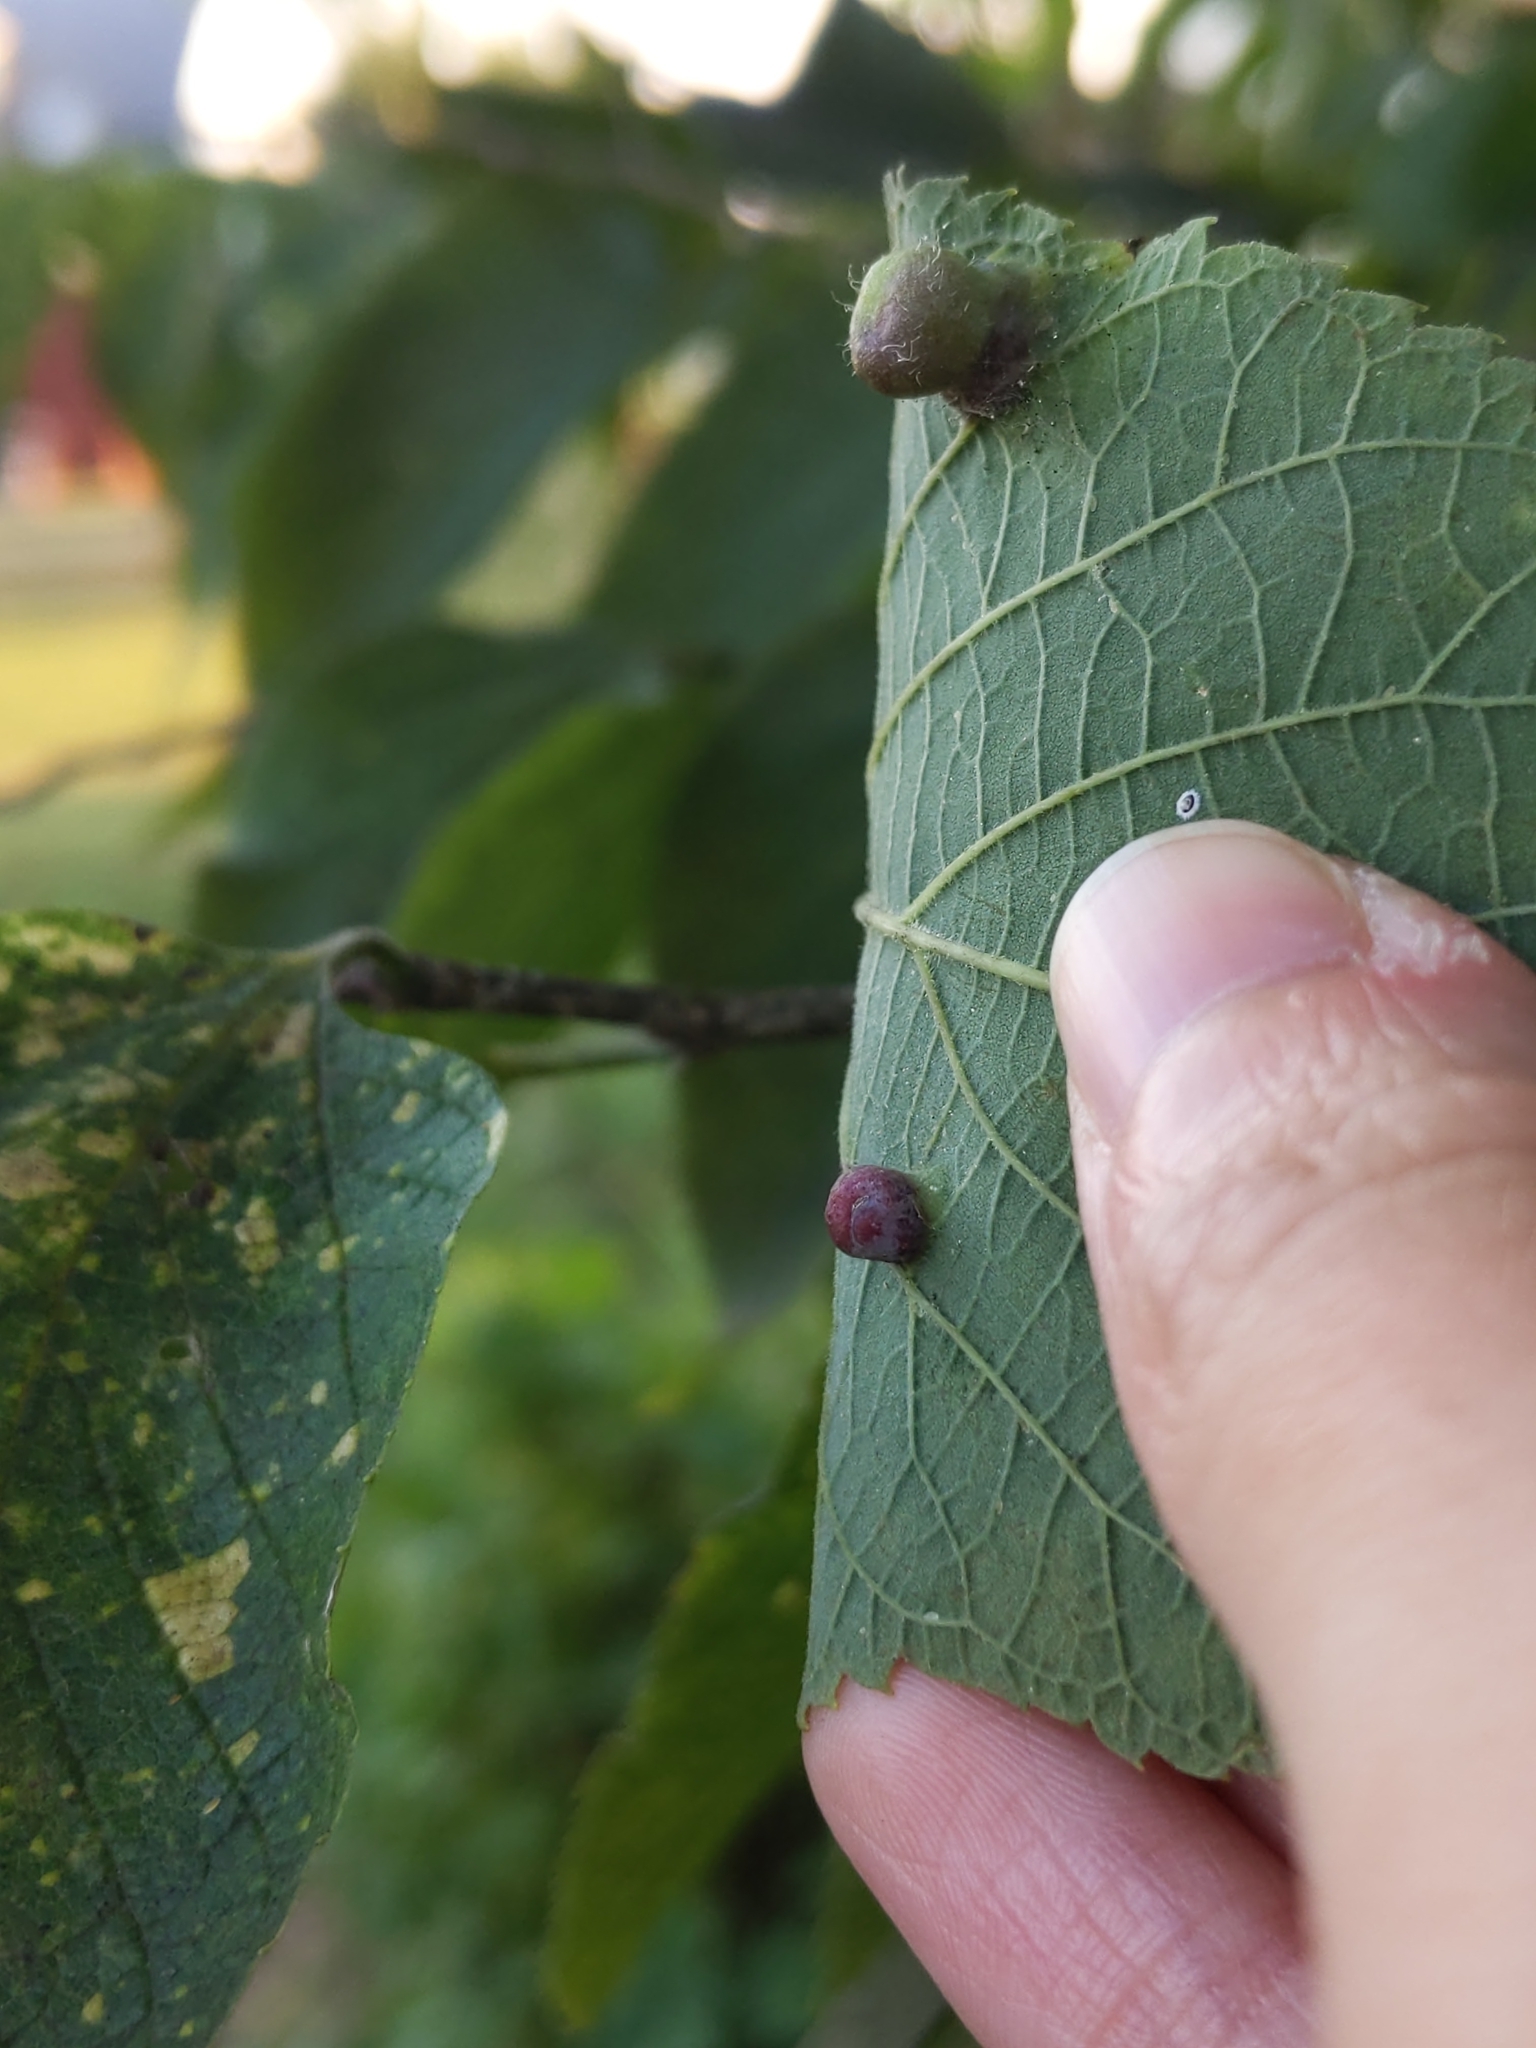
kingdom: Animalia
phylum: Arthropoda
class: Insecta
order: Hemiptera
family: Aphalaridae
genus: Pachypsylla
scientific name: Pachypsylla celtidismamma
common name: Hackberry nipplegall psyllid
